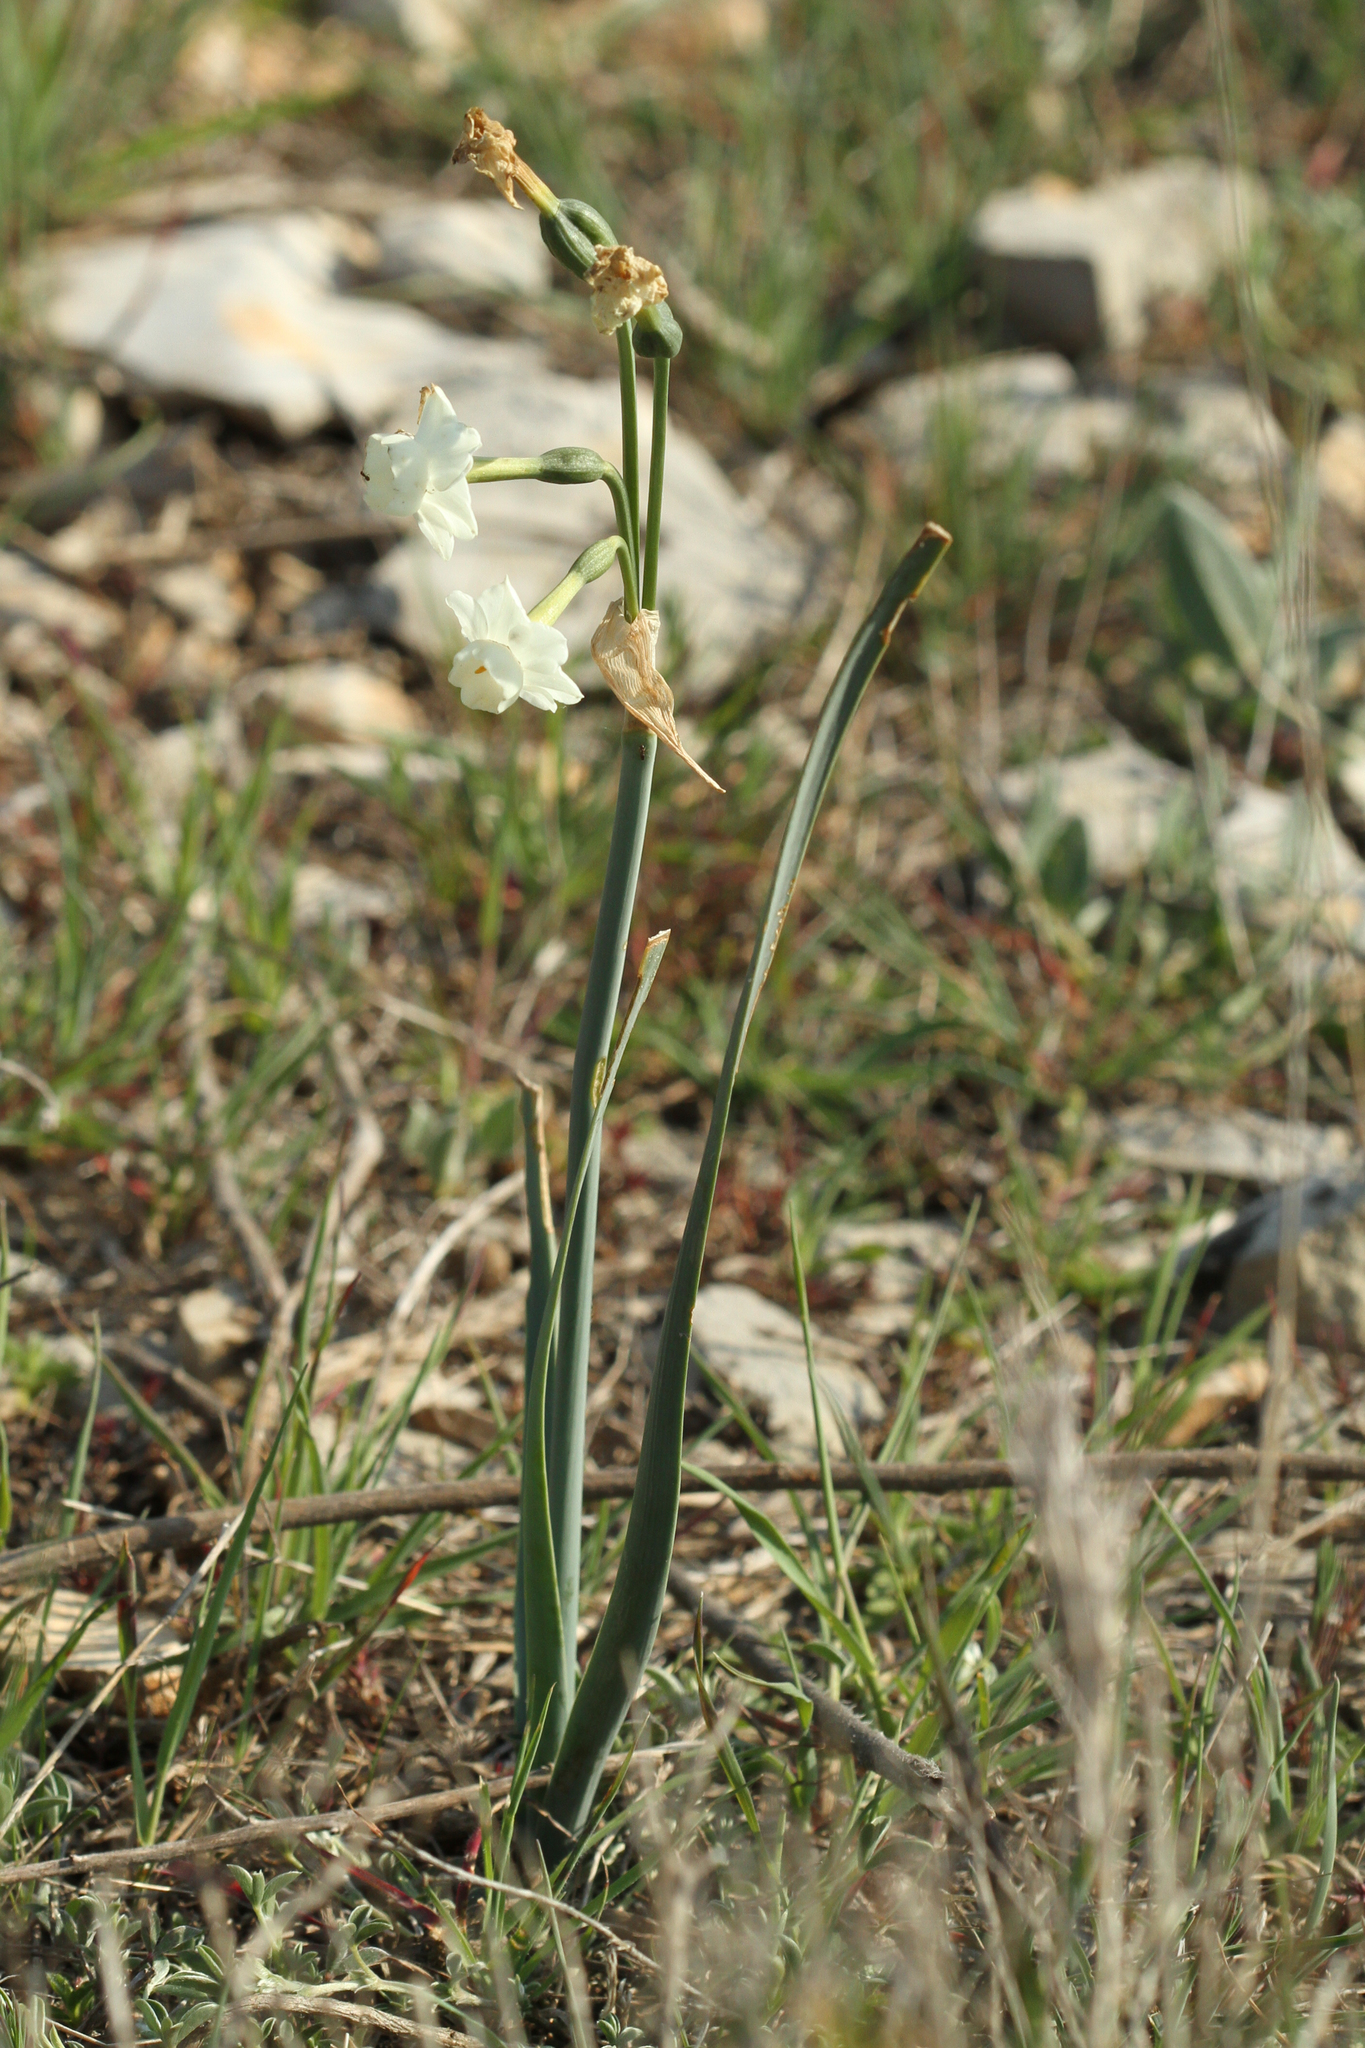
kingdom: Plantae
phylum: Tracheophyta
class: Liliopsida
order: Asparagales
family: Amaryllidaceae
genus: Narcissus
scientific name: Narcissus dubius
